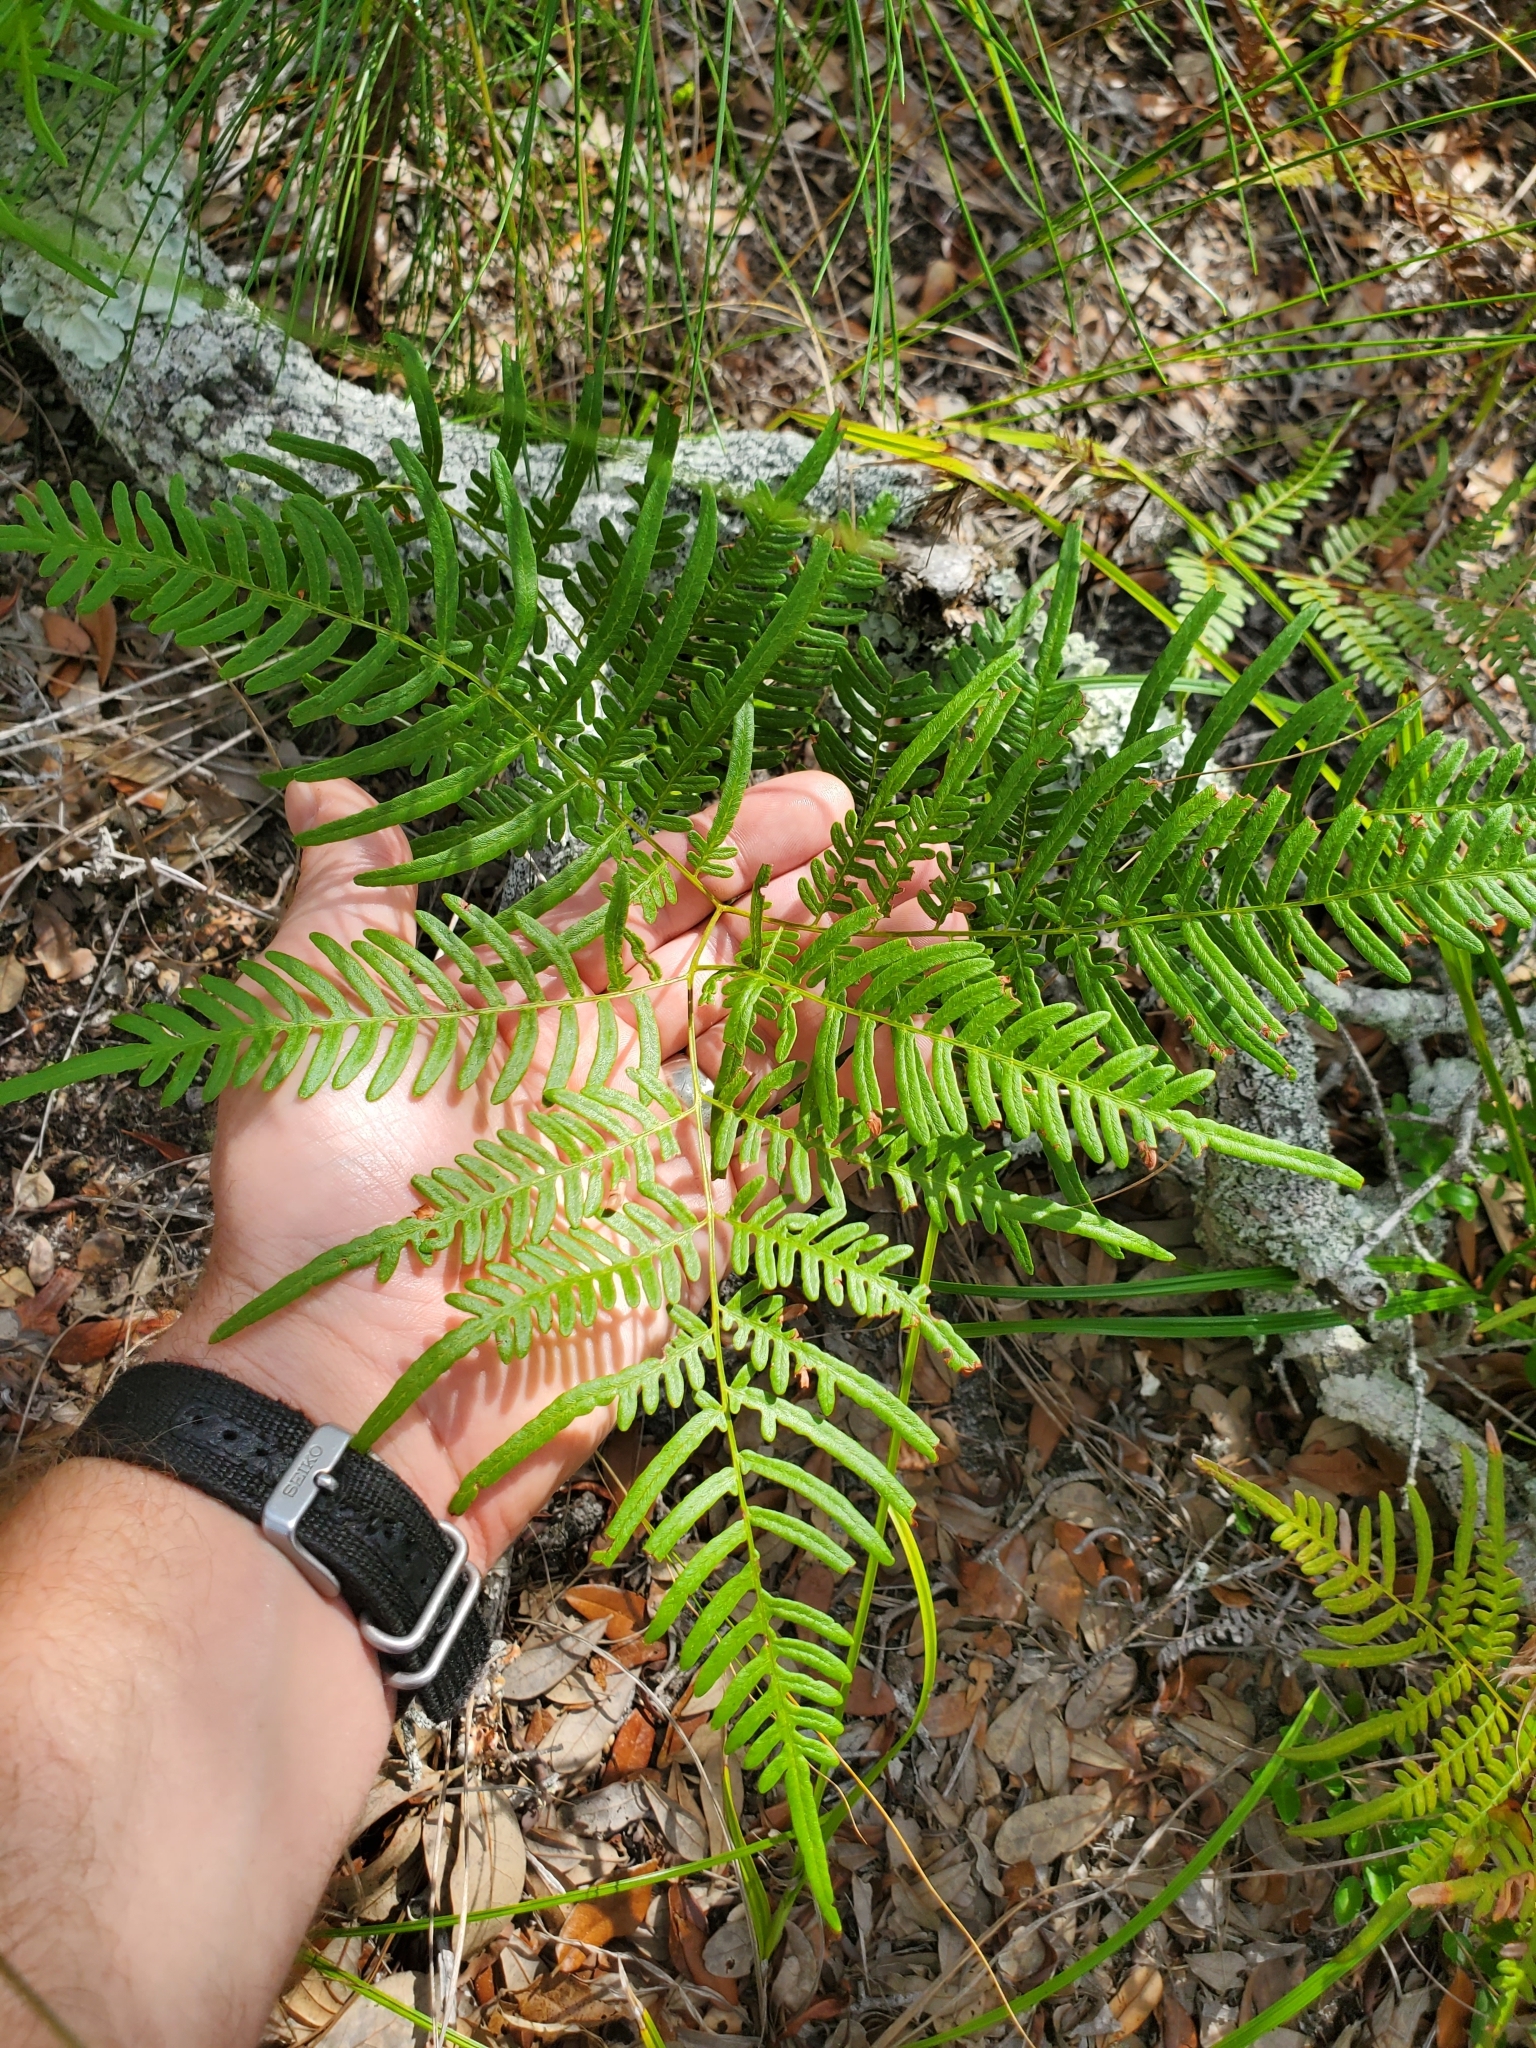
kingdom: Plantae
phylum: Tracheophyta
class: Polypodiopsida
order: Polypodiales
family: Dennstaedtiaceae
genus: Pteridium
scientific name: Pteridium aquilinum
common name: Bracken
